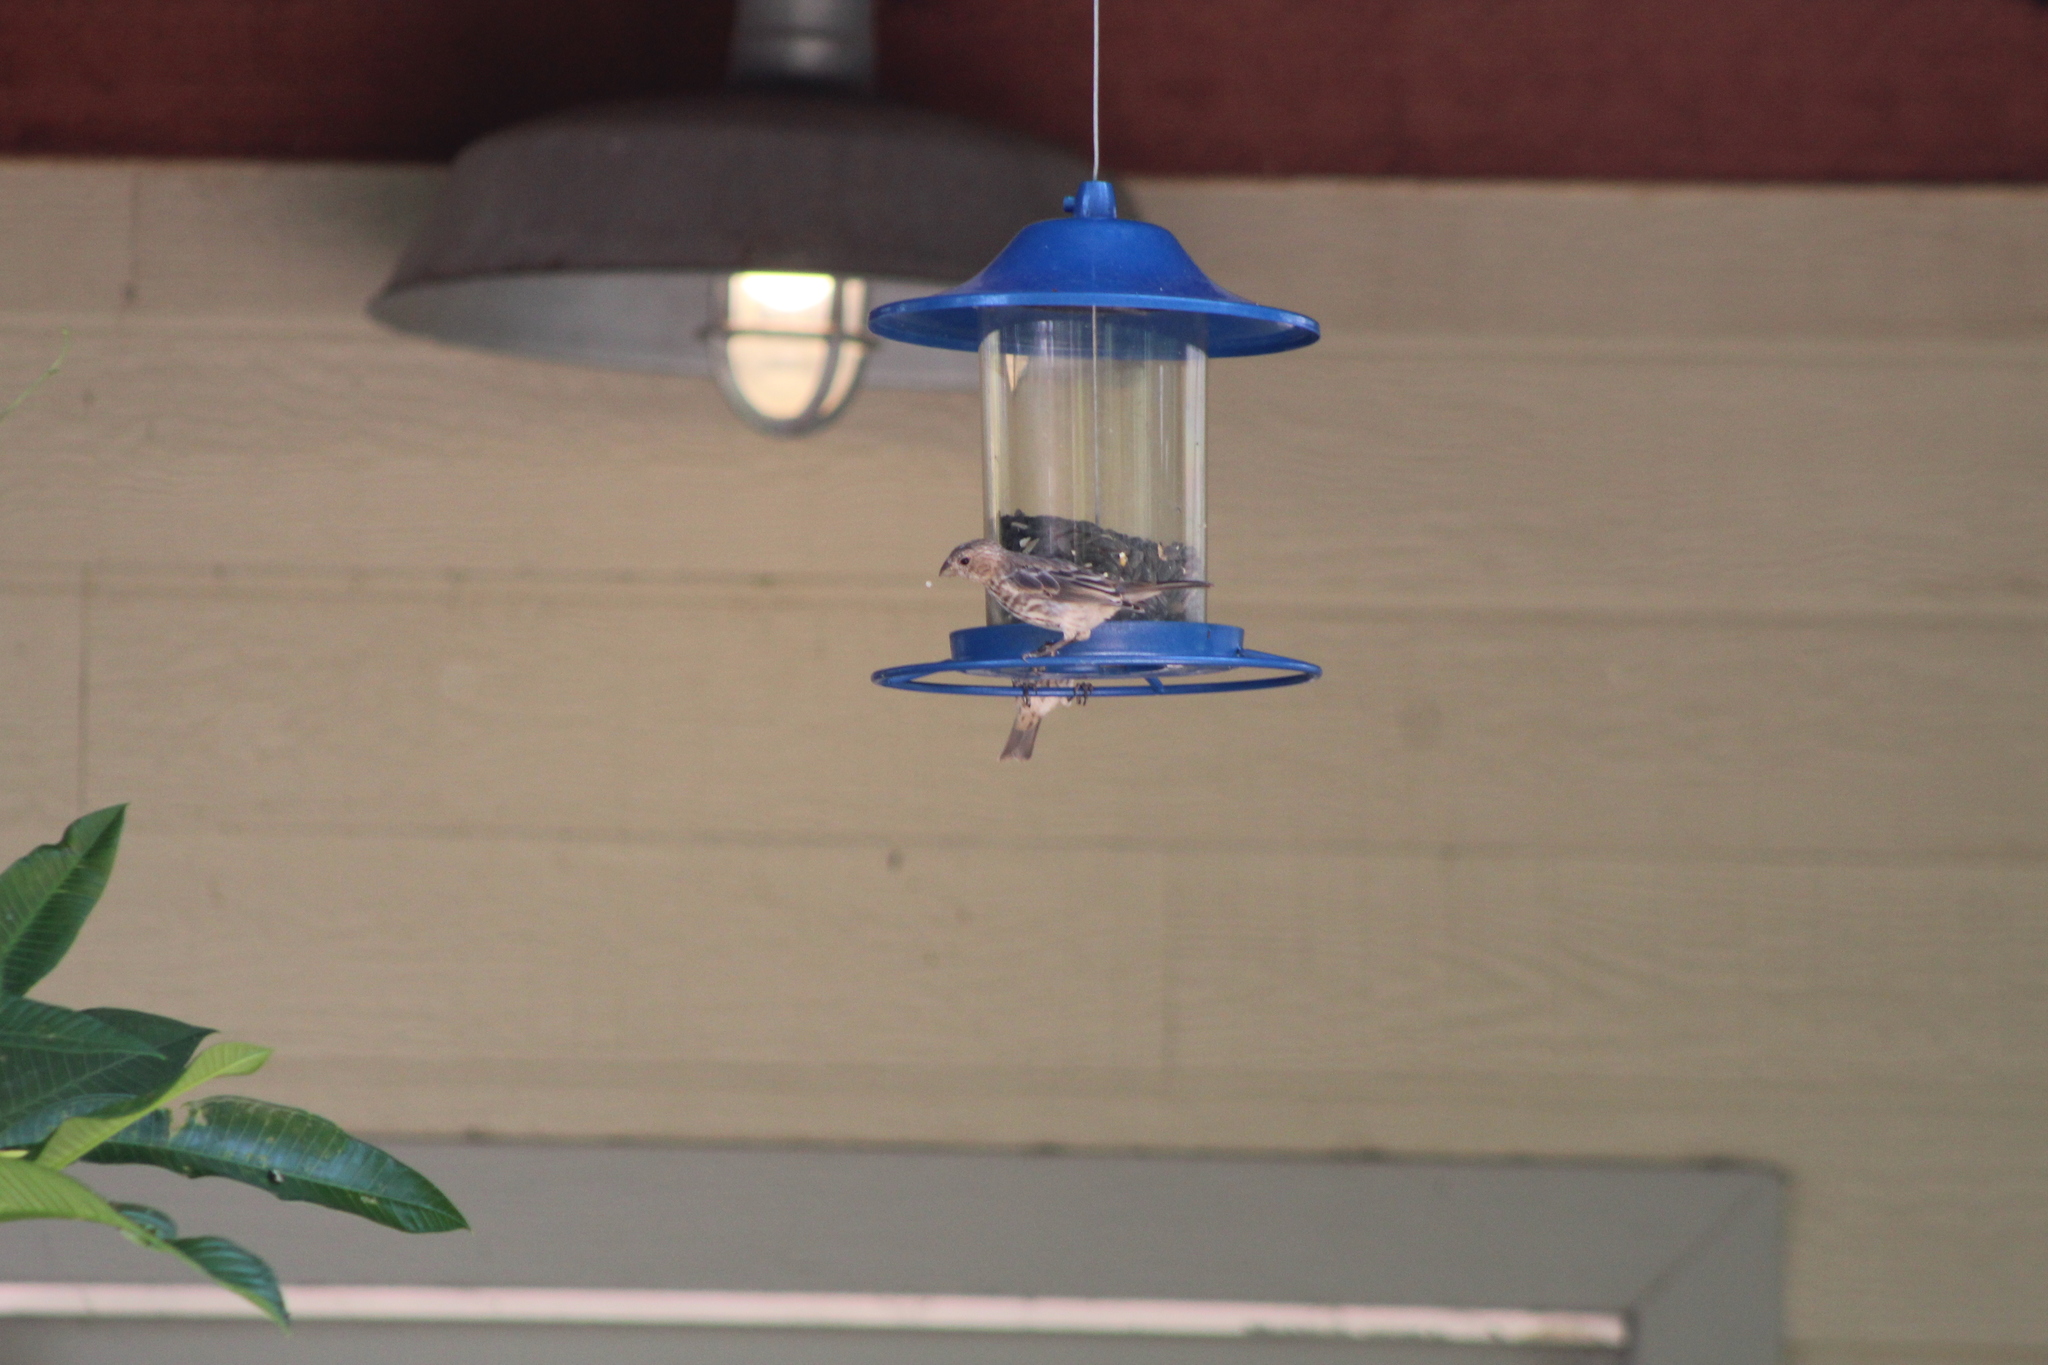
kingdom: Animalia
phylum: Chordata
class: Aves
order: Passeriformes
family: Fringillidae
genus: Haemorhous
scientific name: Haemorhous mexicanus
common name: House finch
